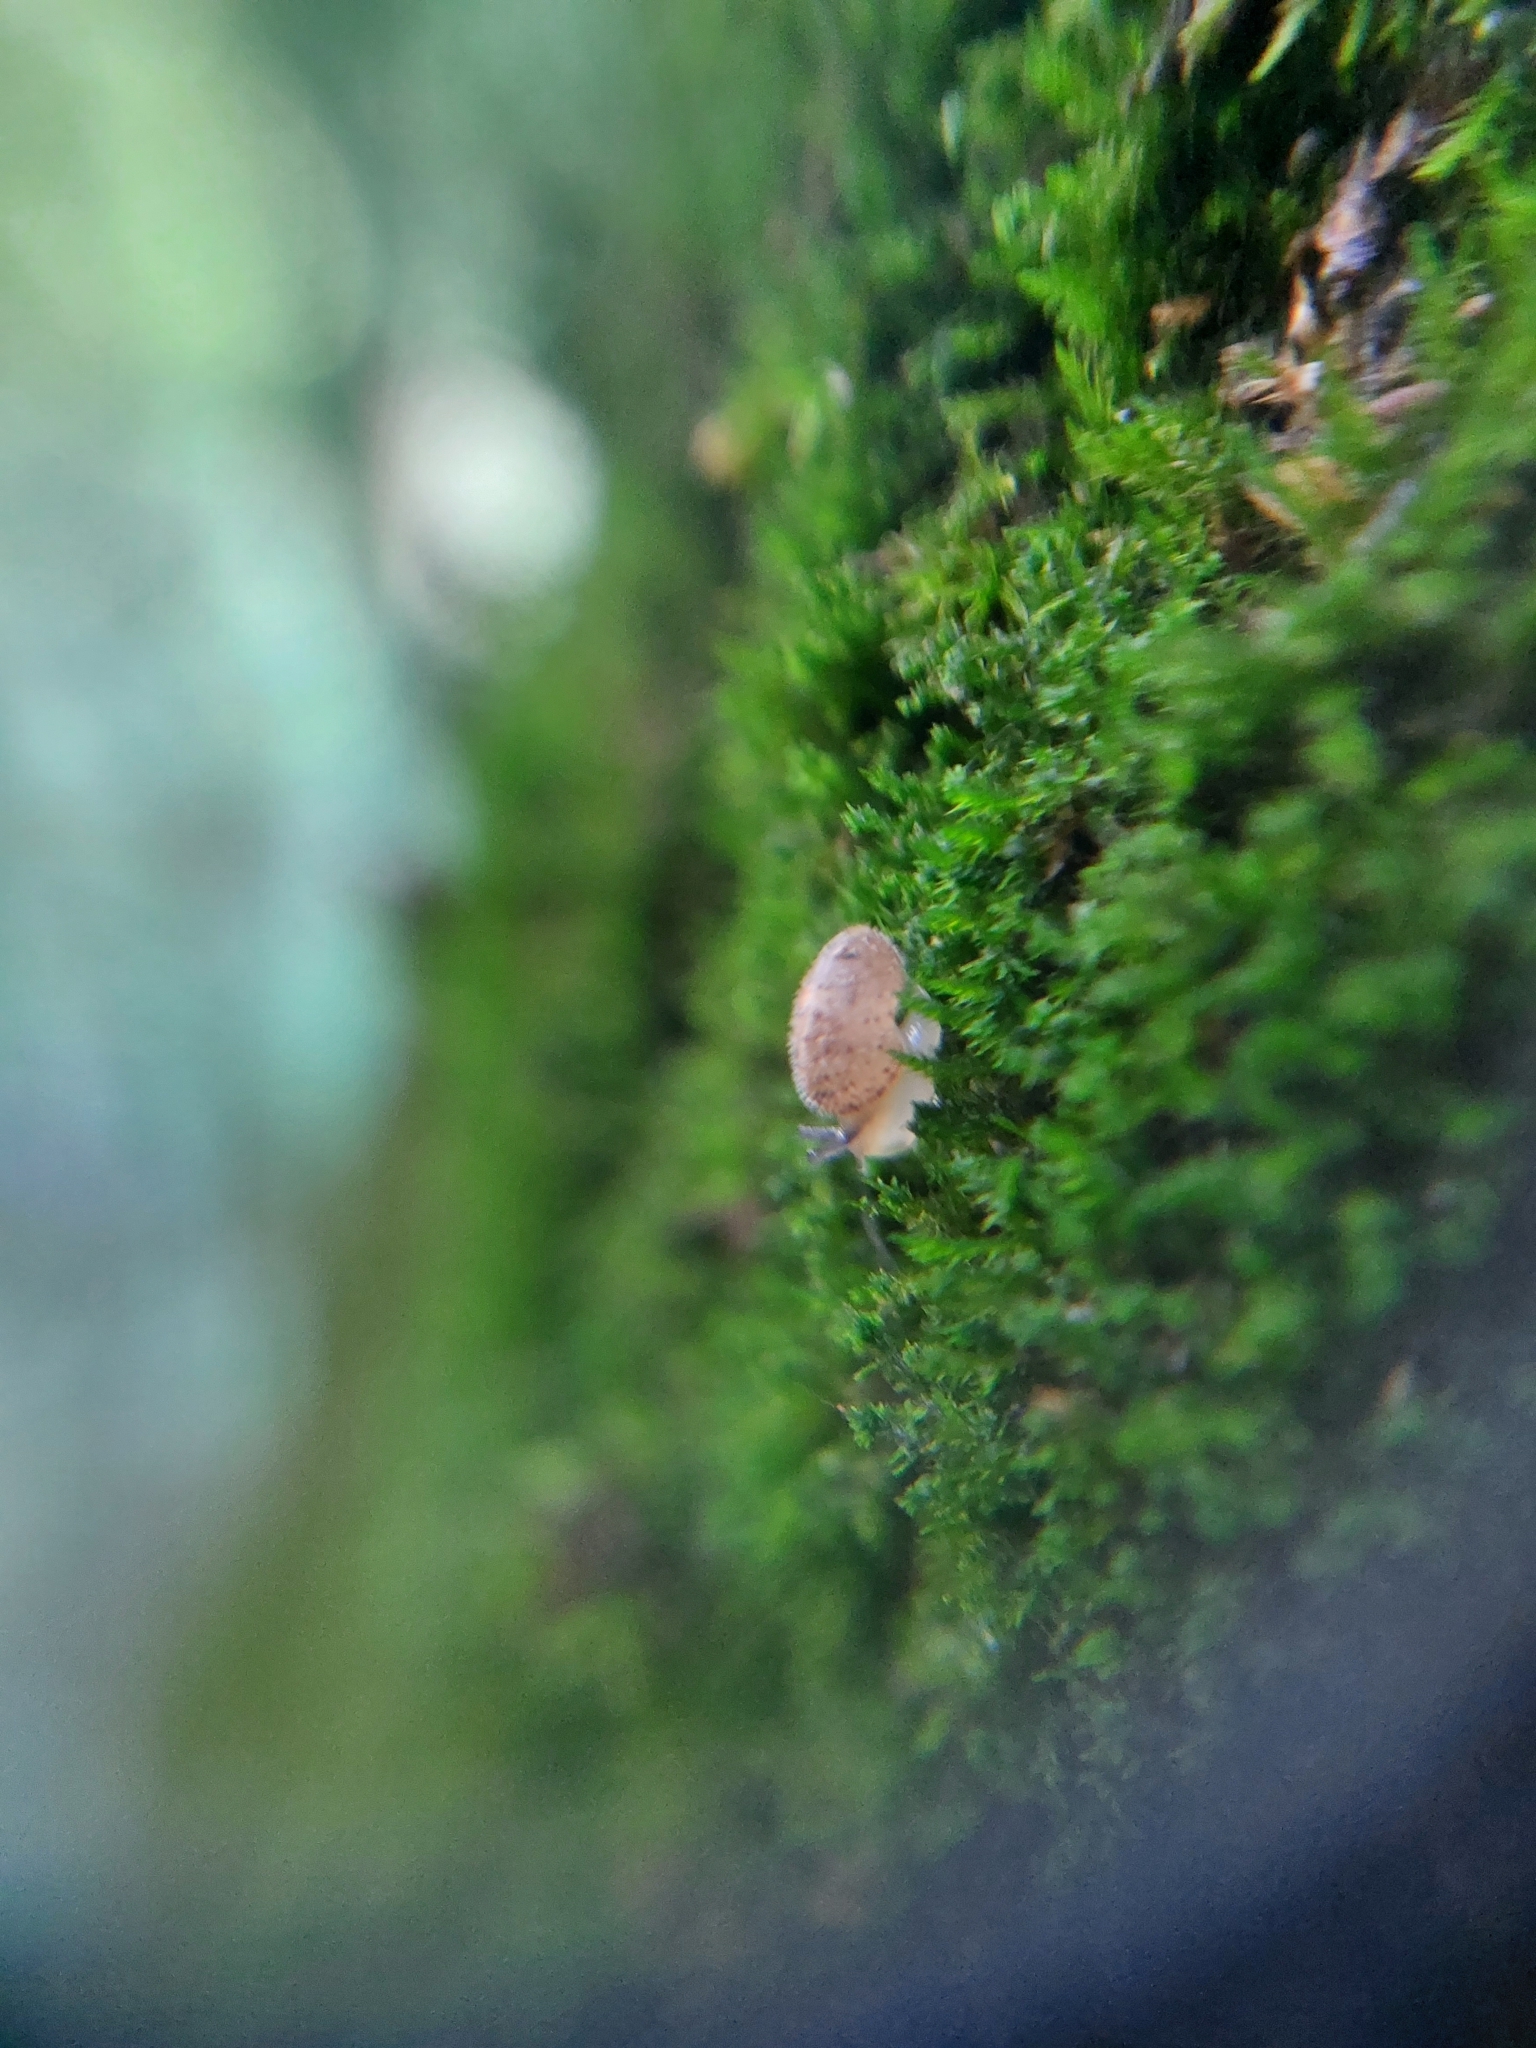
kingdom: Animalia
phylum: Mollusca
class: Gastropoda
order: Stylommatophora
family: Hygromiidae
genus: Euomphalia
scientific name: Euomphalia strigella
